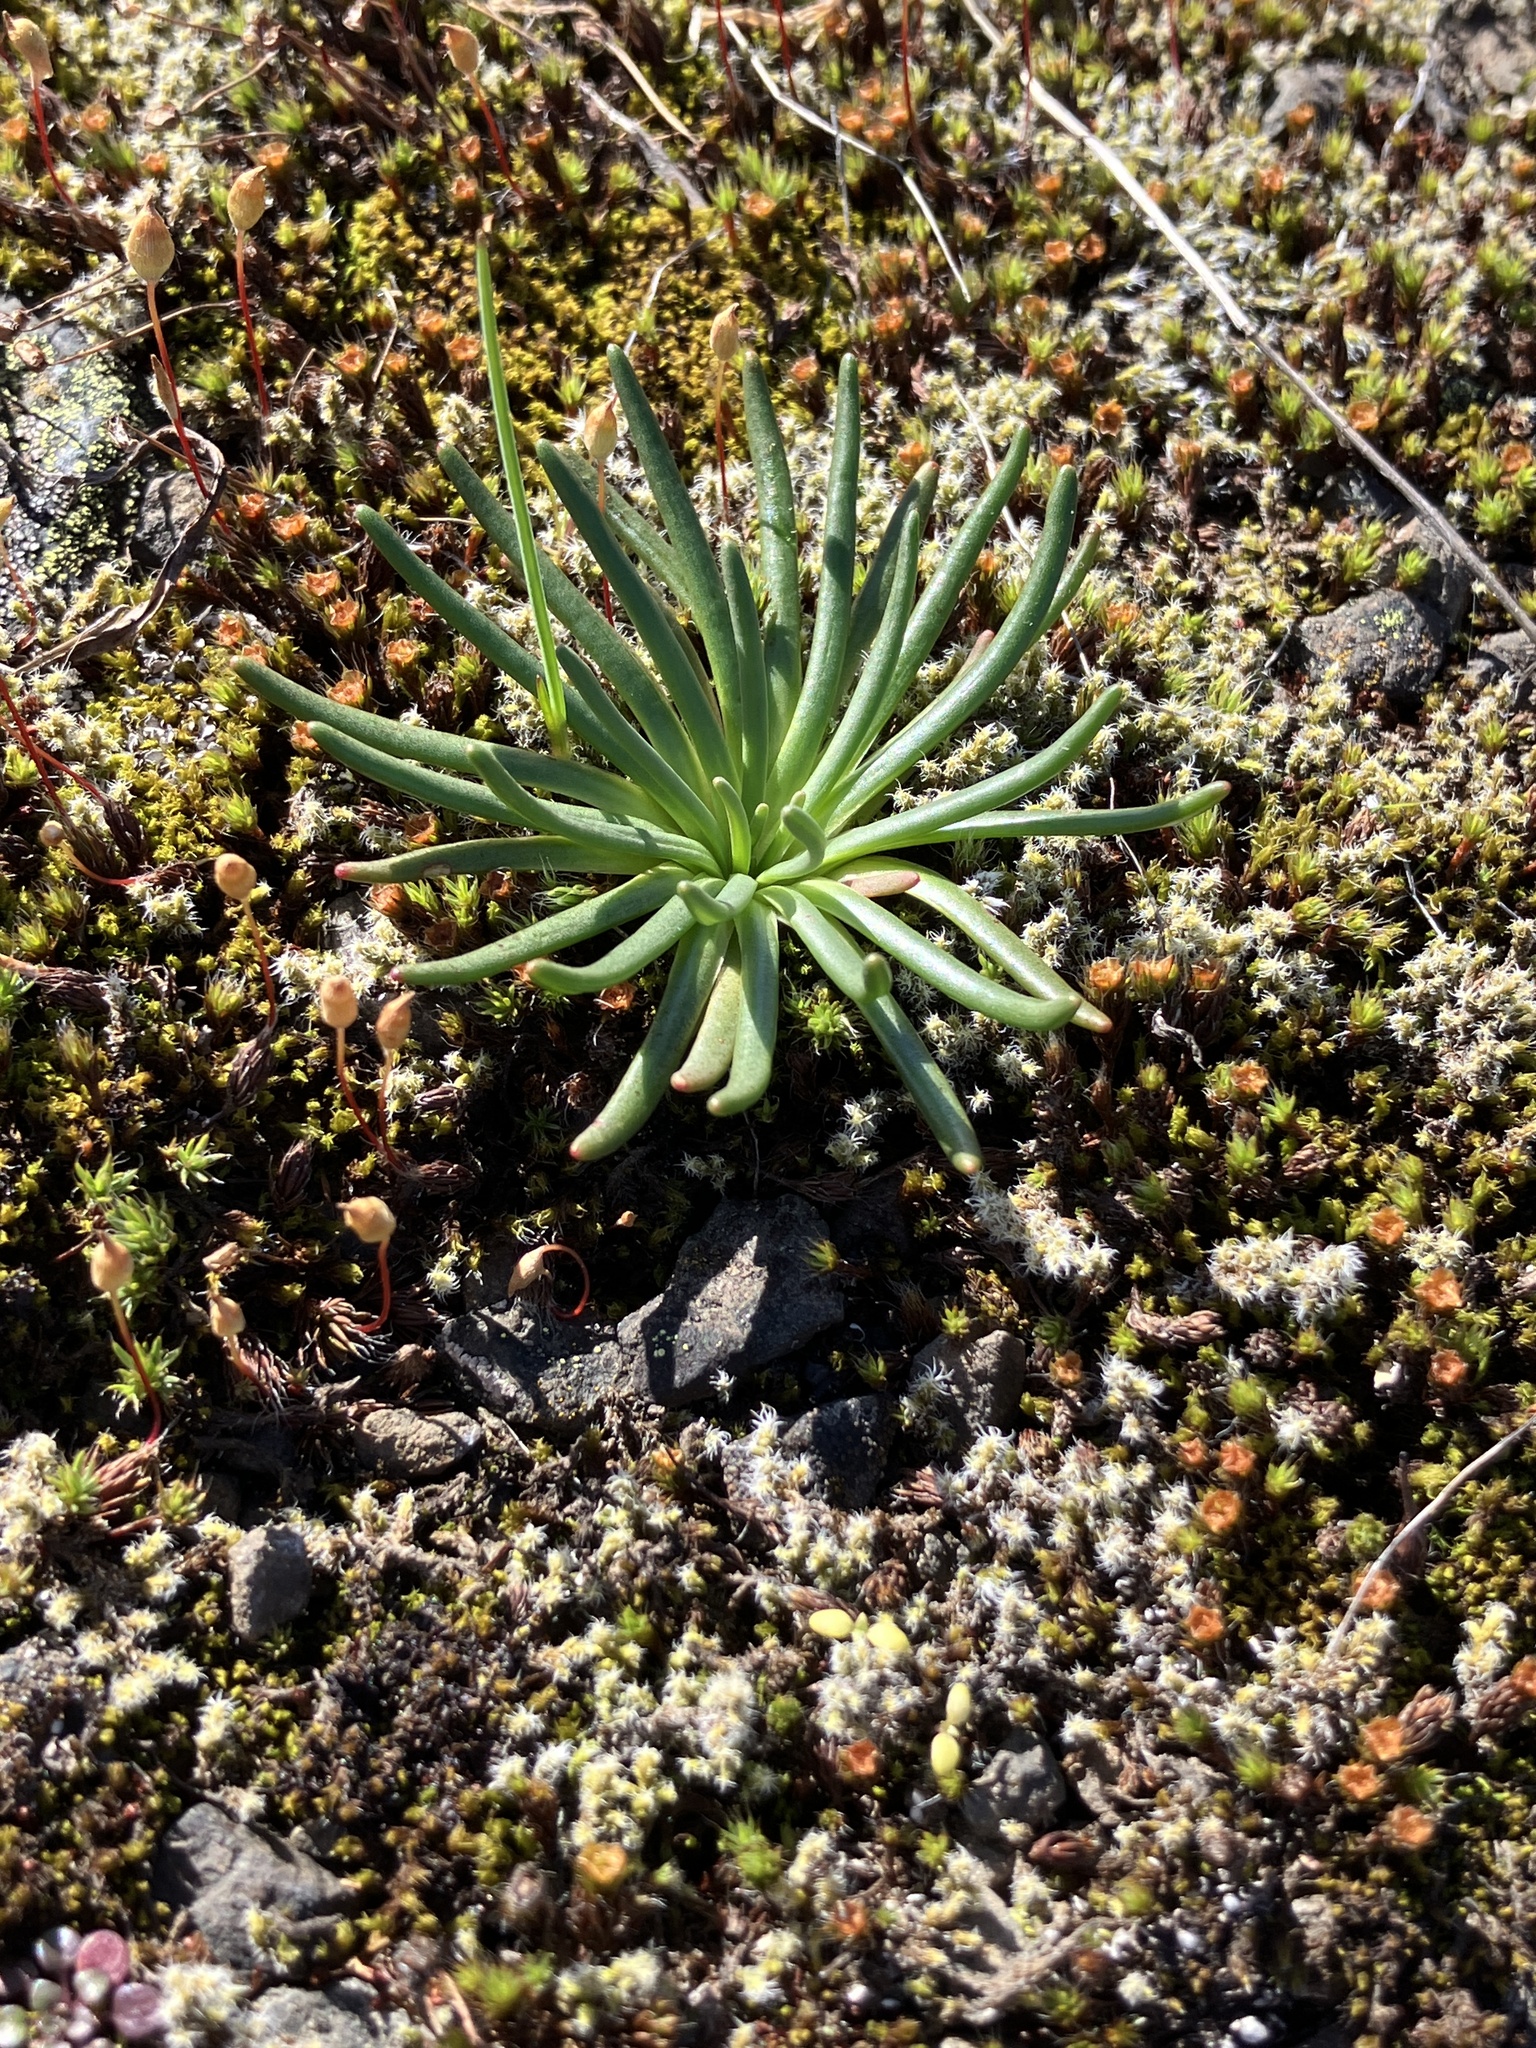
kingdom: Plantae
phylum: Tracheophyta
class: Magnoliopsida
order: Caryophyllales
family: Montiaceae
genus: Lewisia
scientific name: Lewisia rediviva
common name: Bitter-root
